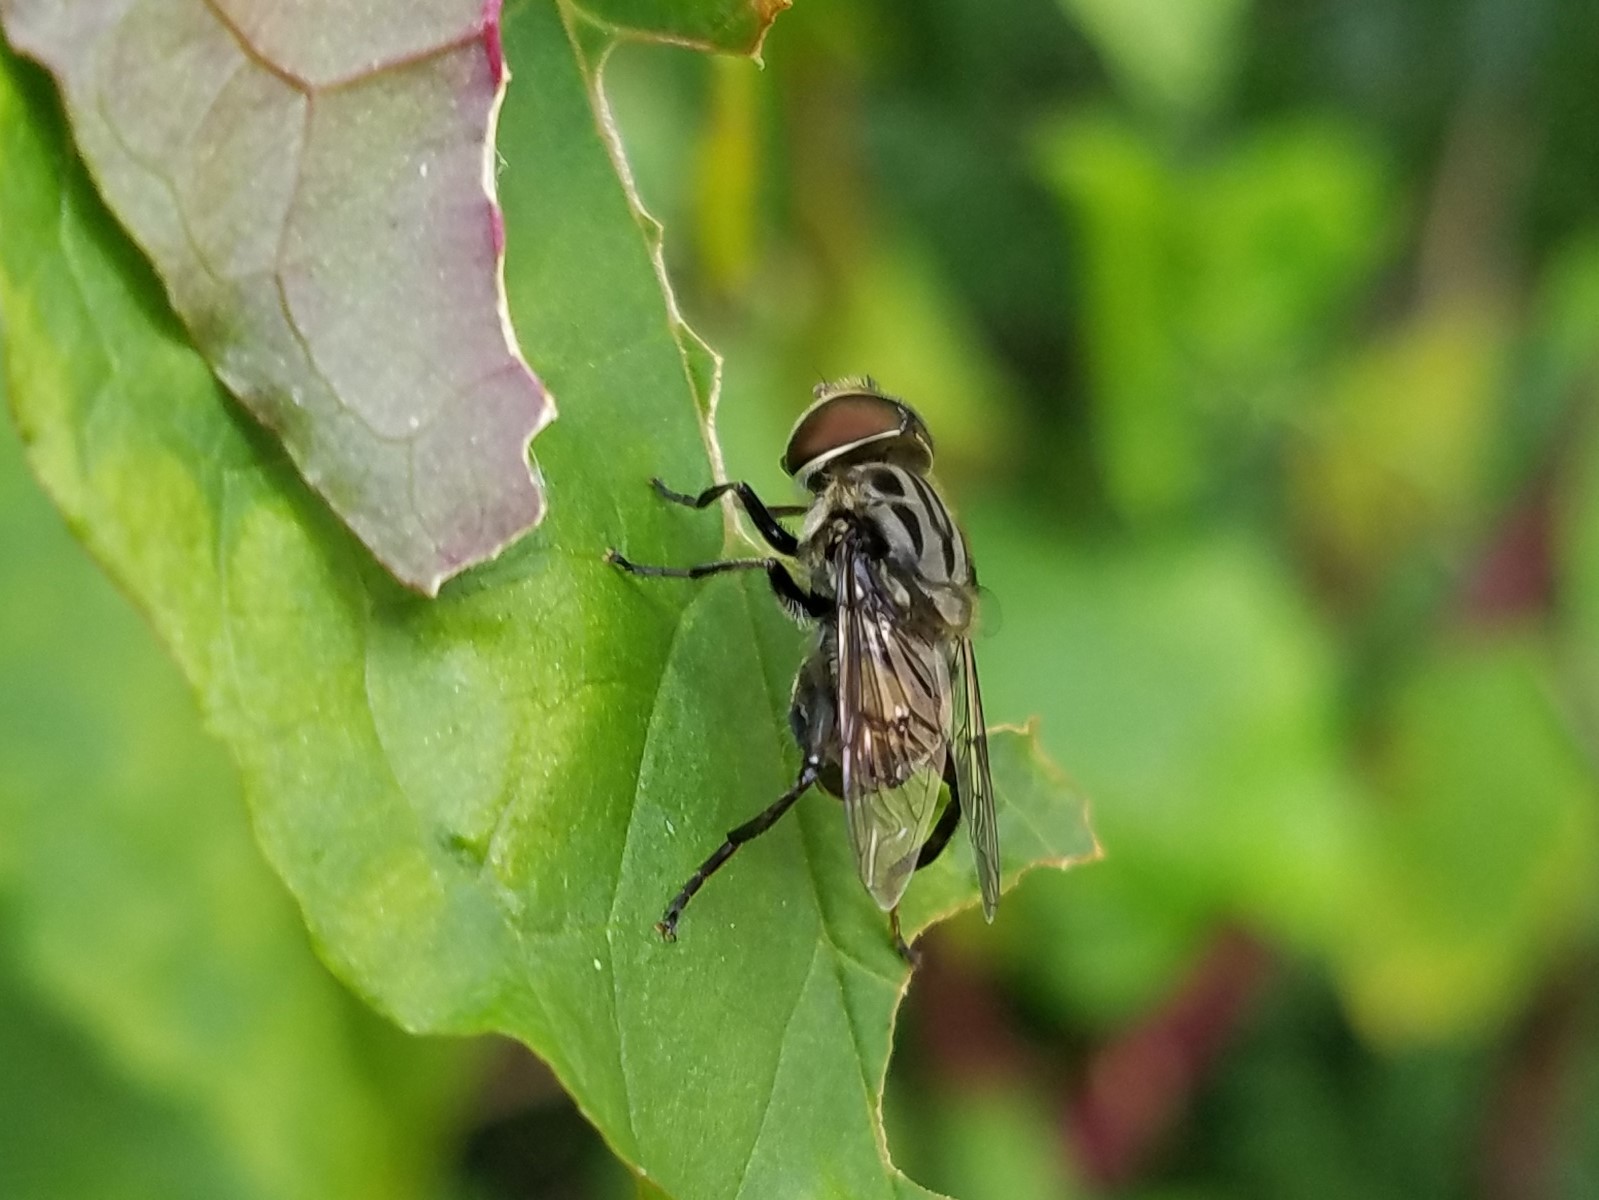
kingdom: Animalia
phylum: Arthropoda
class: Insecta
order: Diptera
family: Syrphidae
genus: Palpada
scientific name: Palpada furcata
